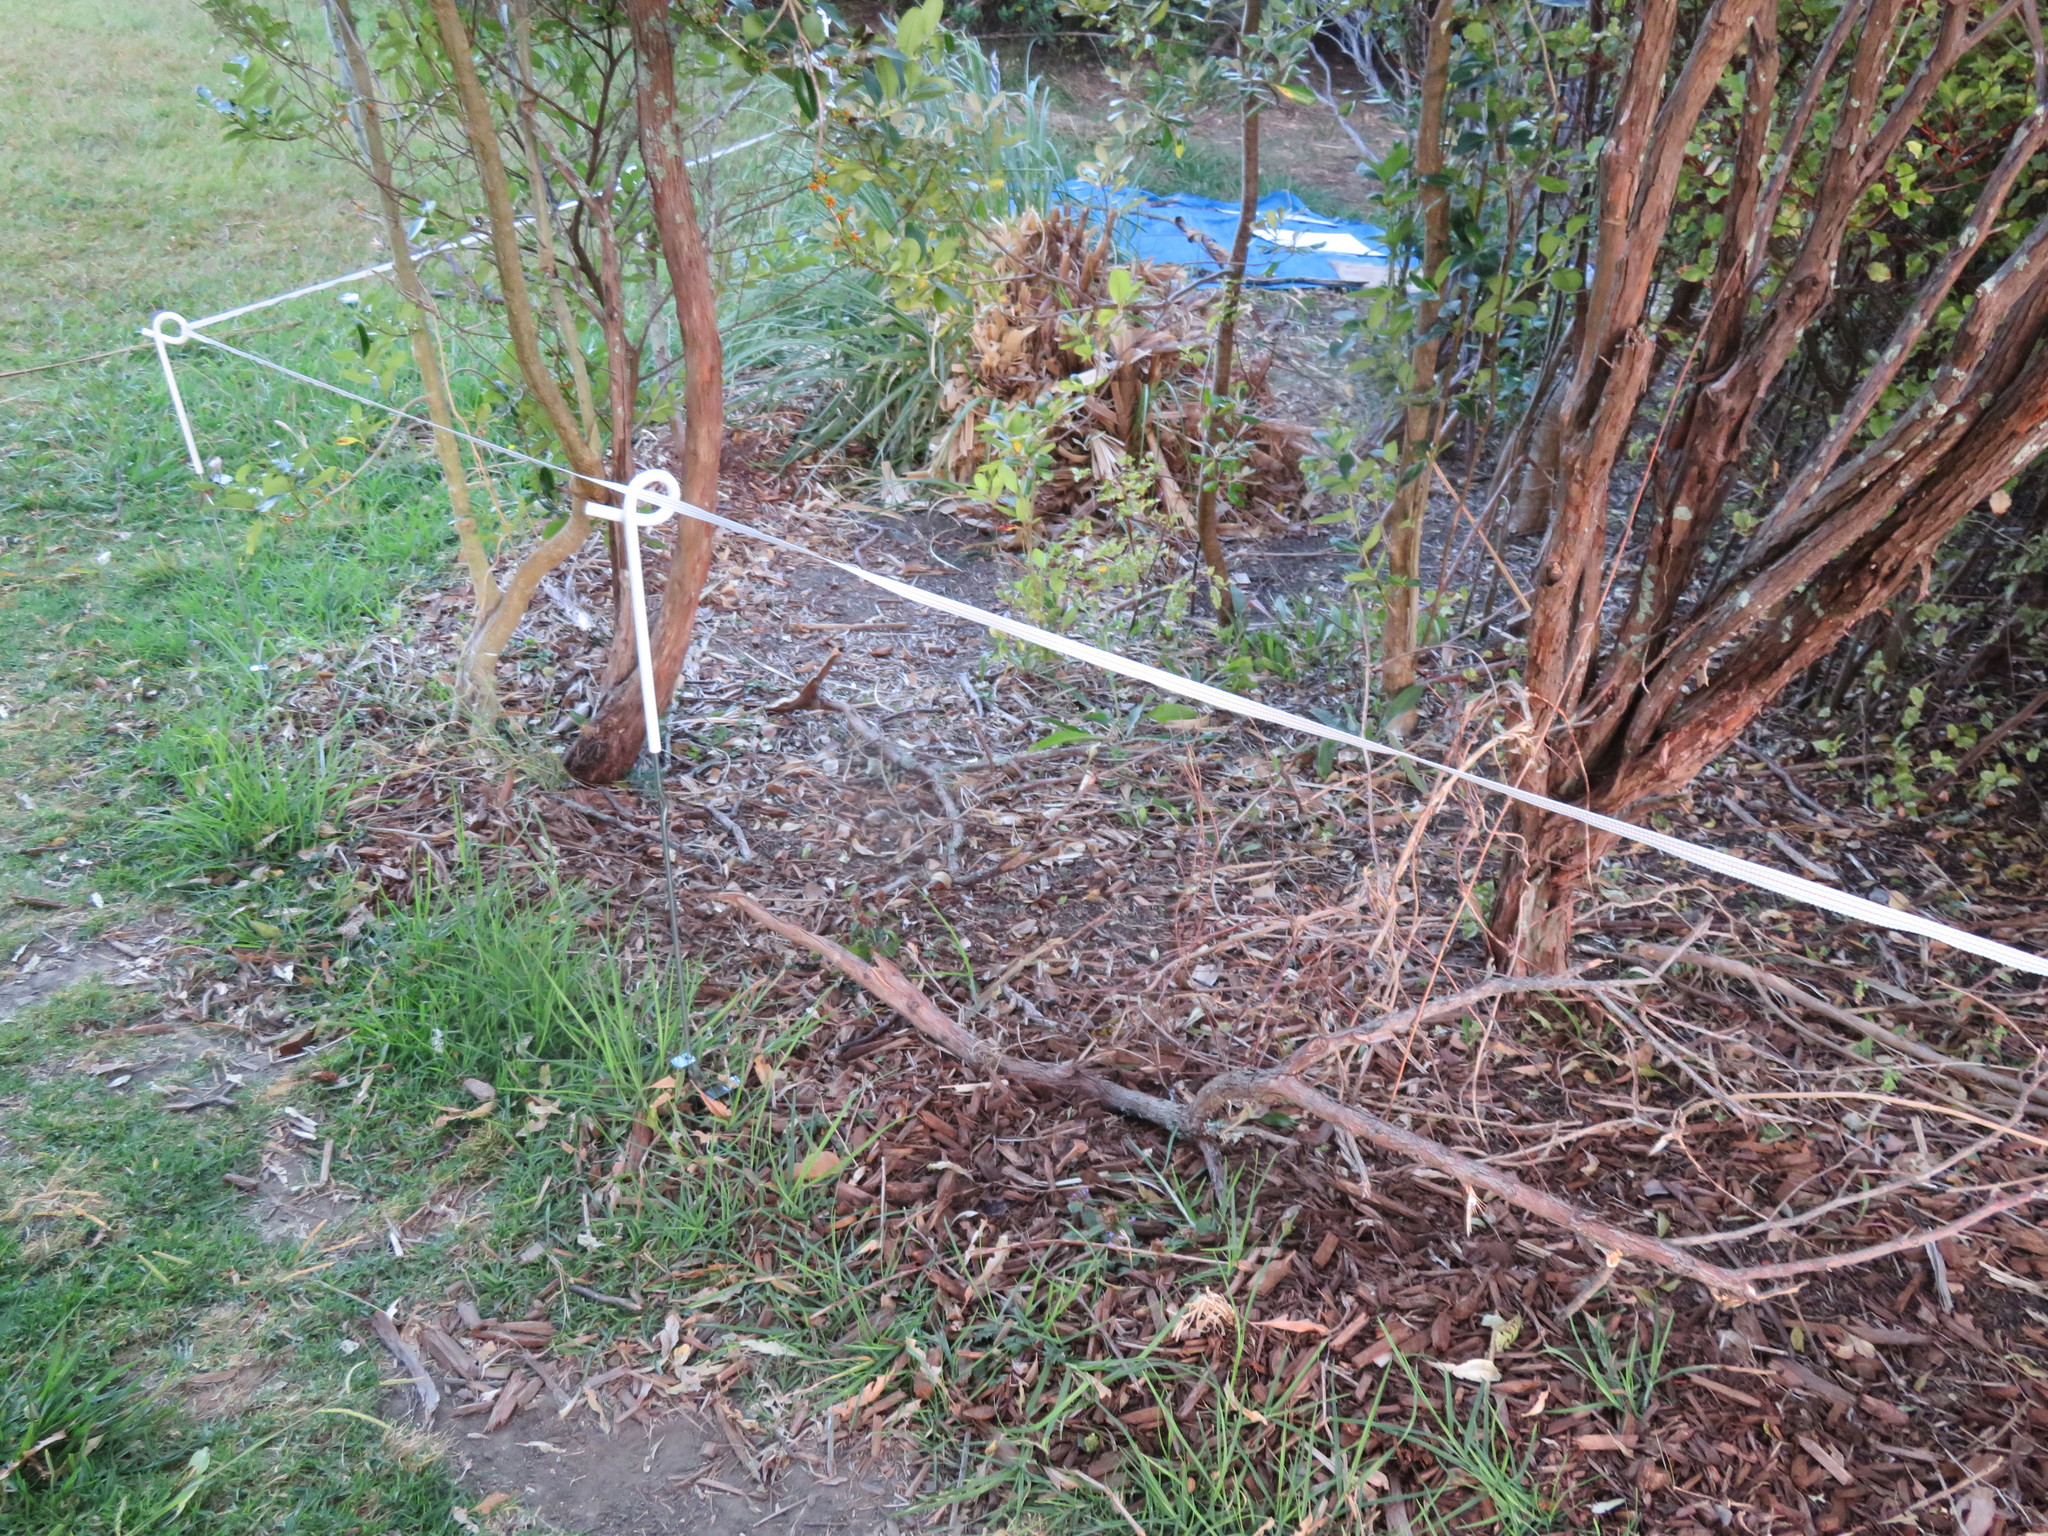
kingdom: Plantae
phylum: Tracheophyta
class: Liliopsida
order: Poales
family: Poaceae
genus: Cenchrus
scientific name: Cenchrus clandestinus
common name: Kikuyugrass
